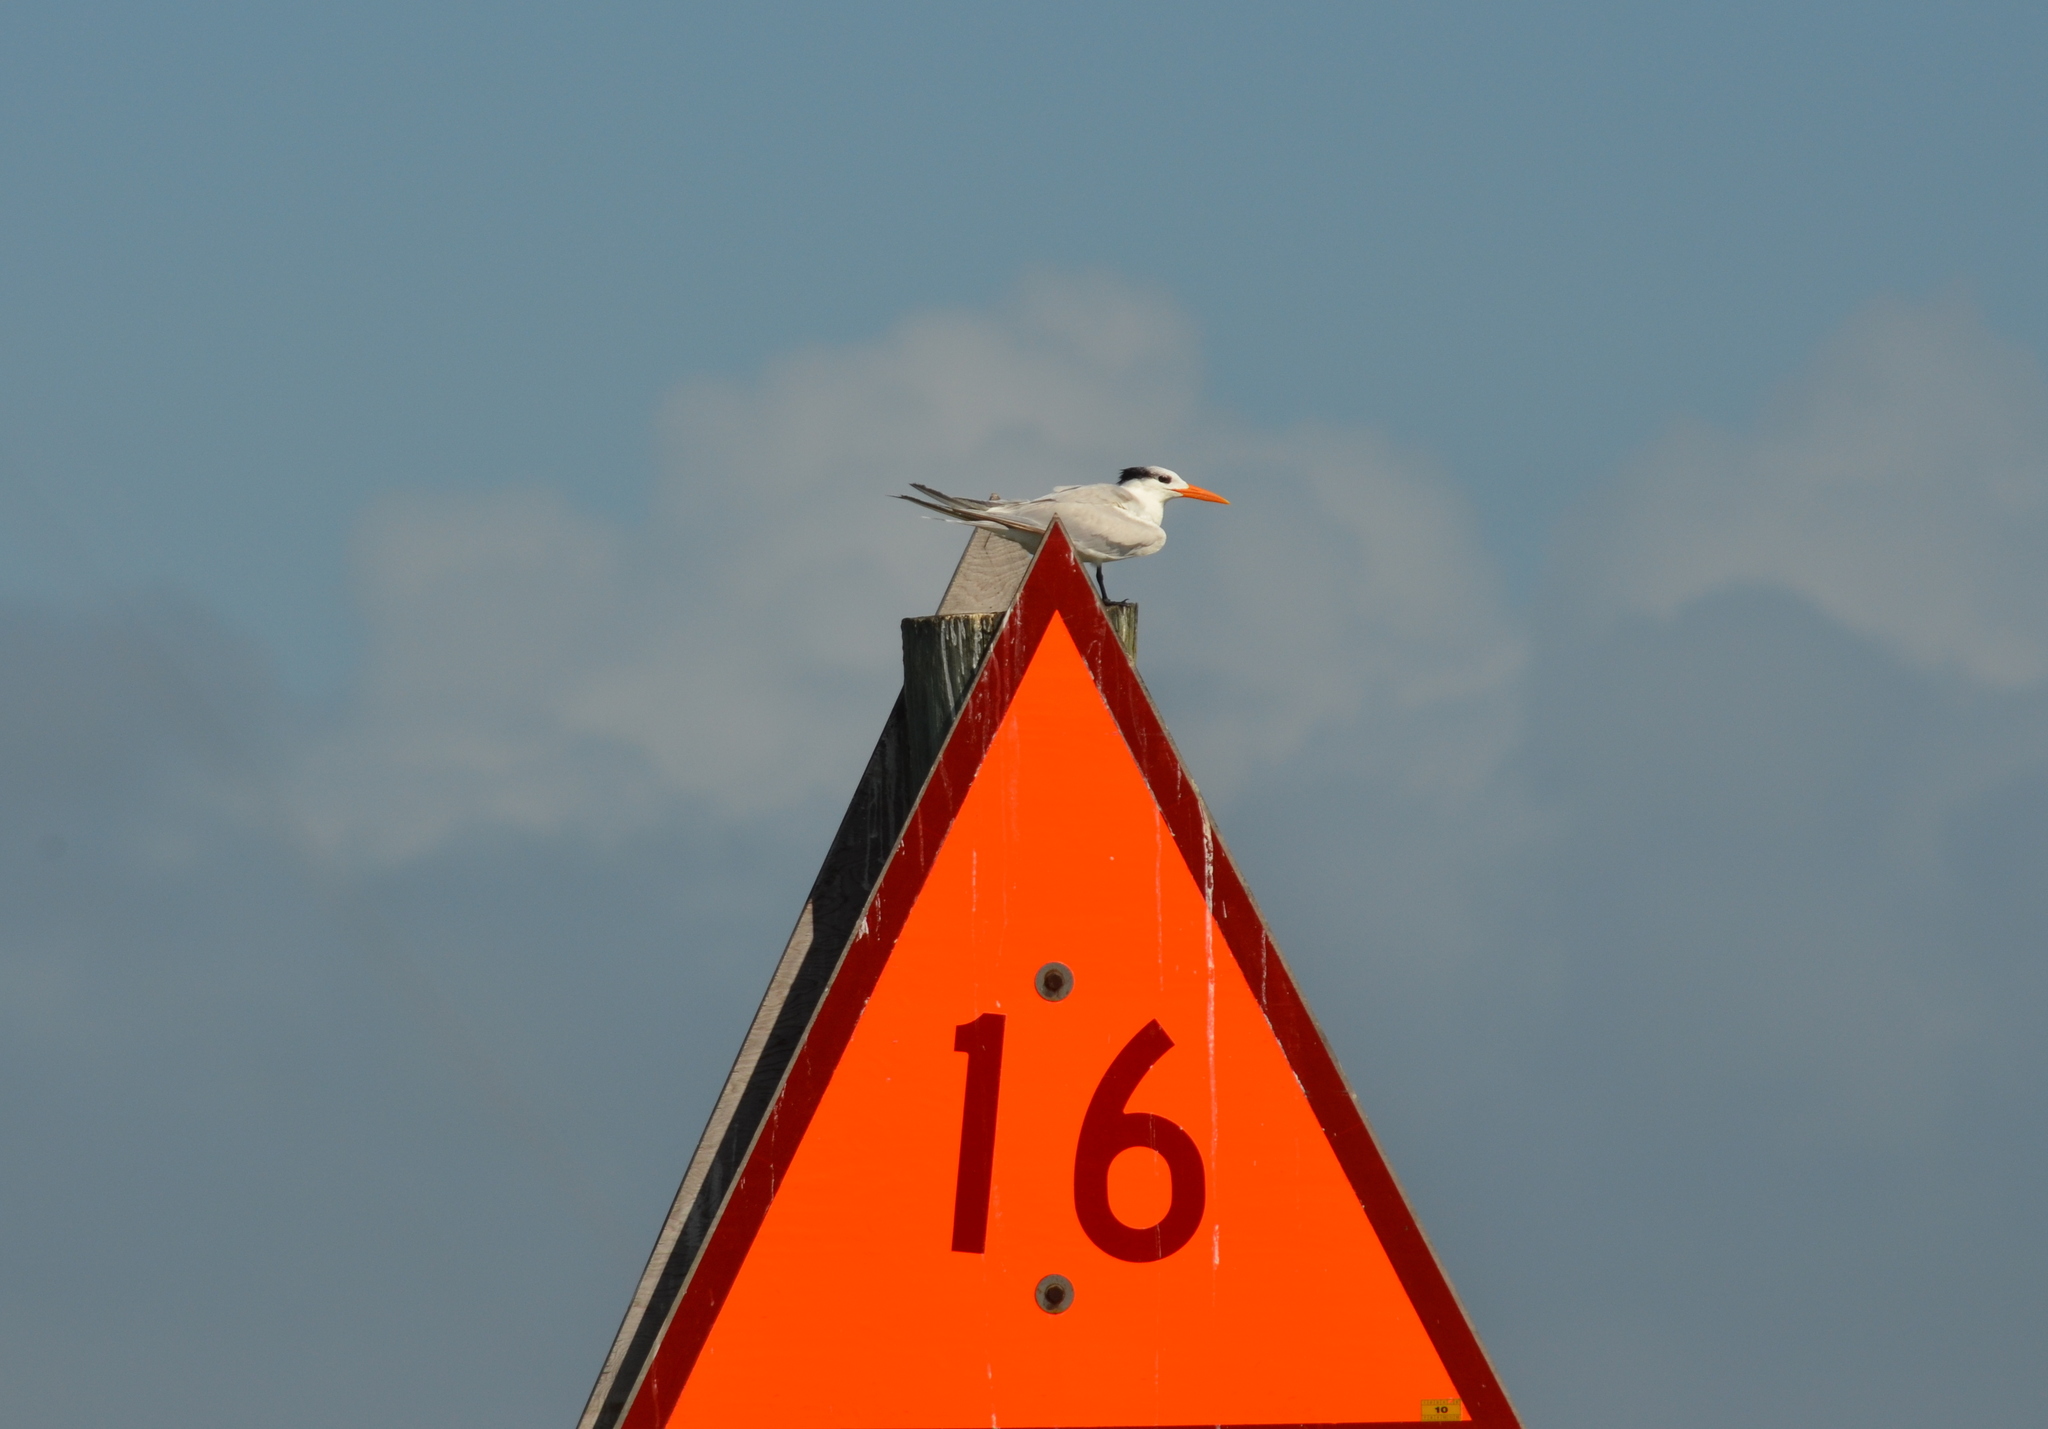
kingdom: Animalia
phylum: Chordata
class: Aves
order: Charadriiformes
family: Laridae
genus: Thalasseus
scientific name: Thalasseus maximus
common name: Royal tern
